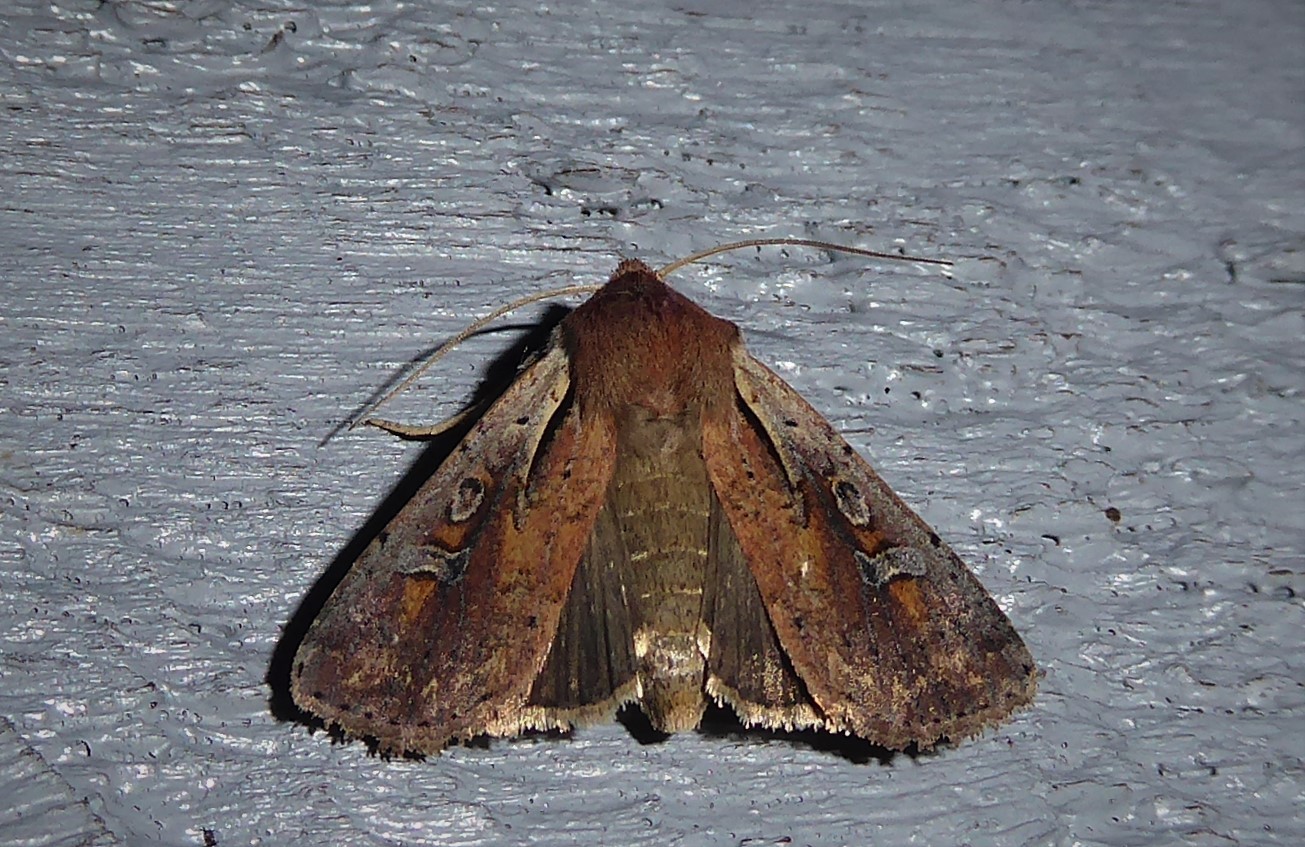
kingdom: Animalia
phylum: Arthropoda
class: Insecta
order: Lepidoptera
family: Noctuidae
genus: Ichneutica
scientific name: Ichneutica atristriga
